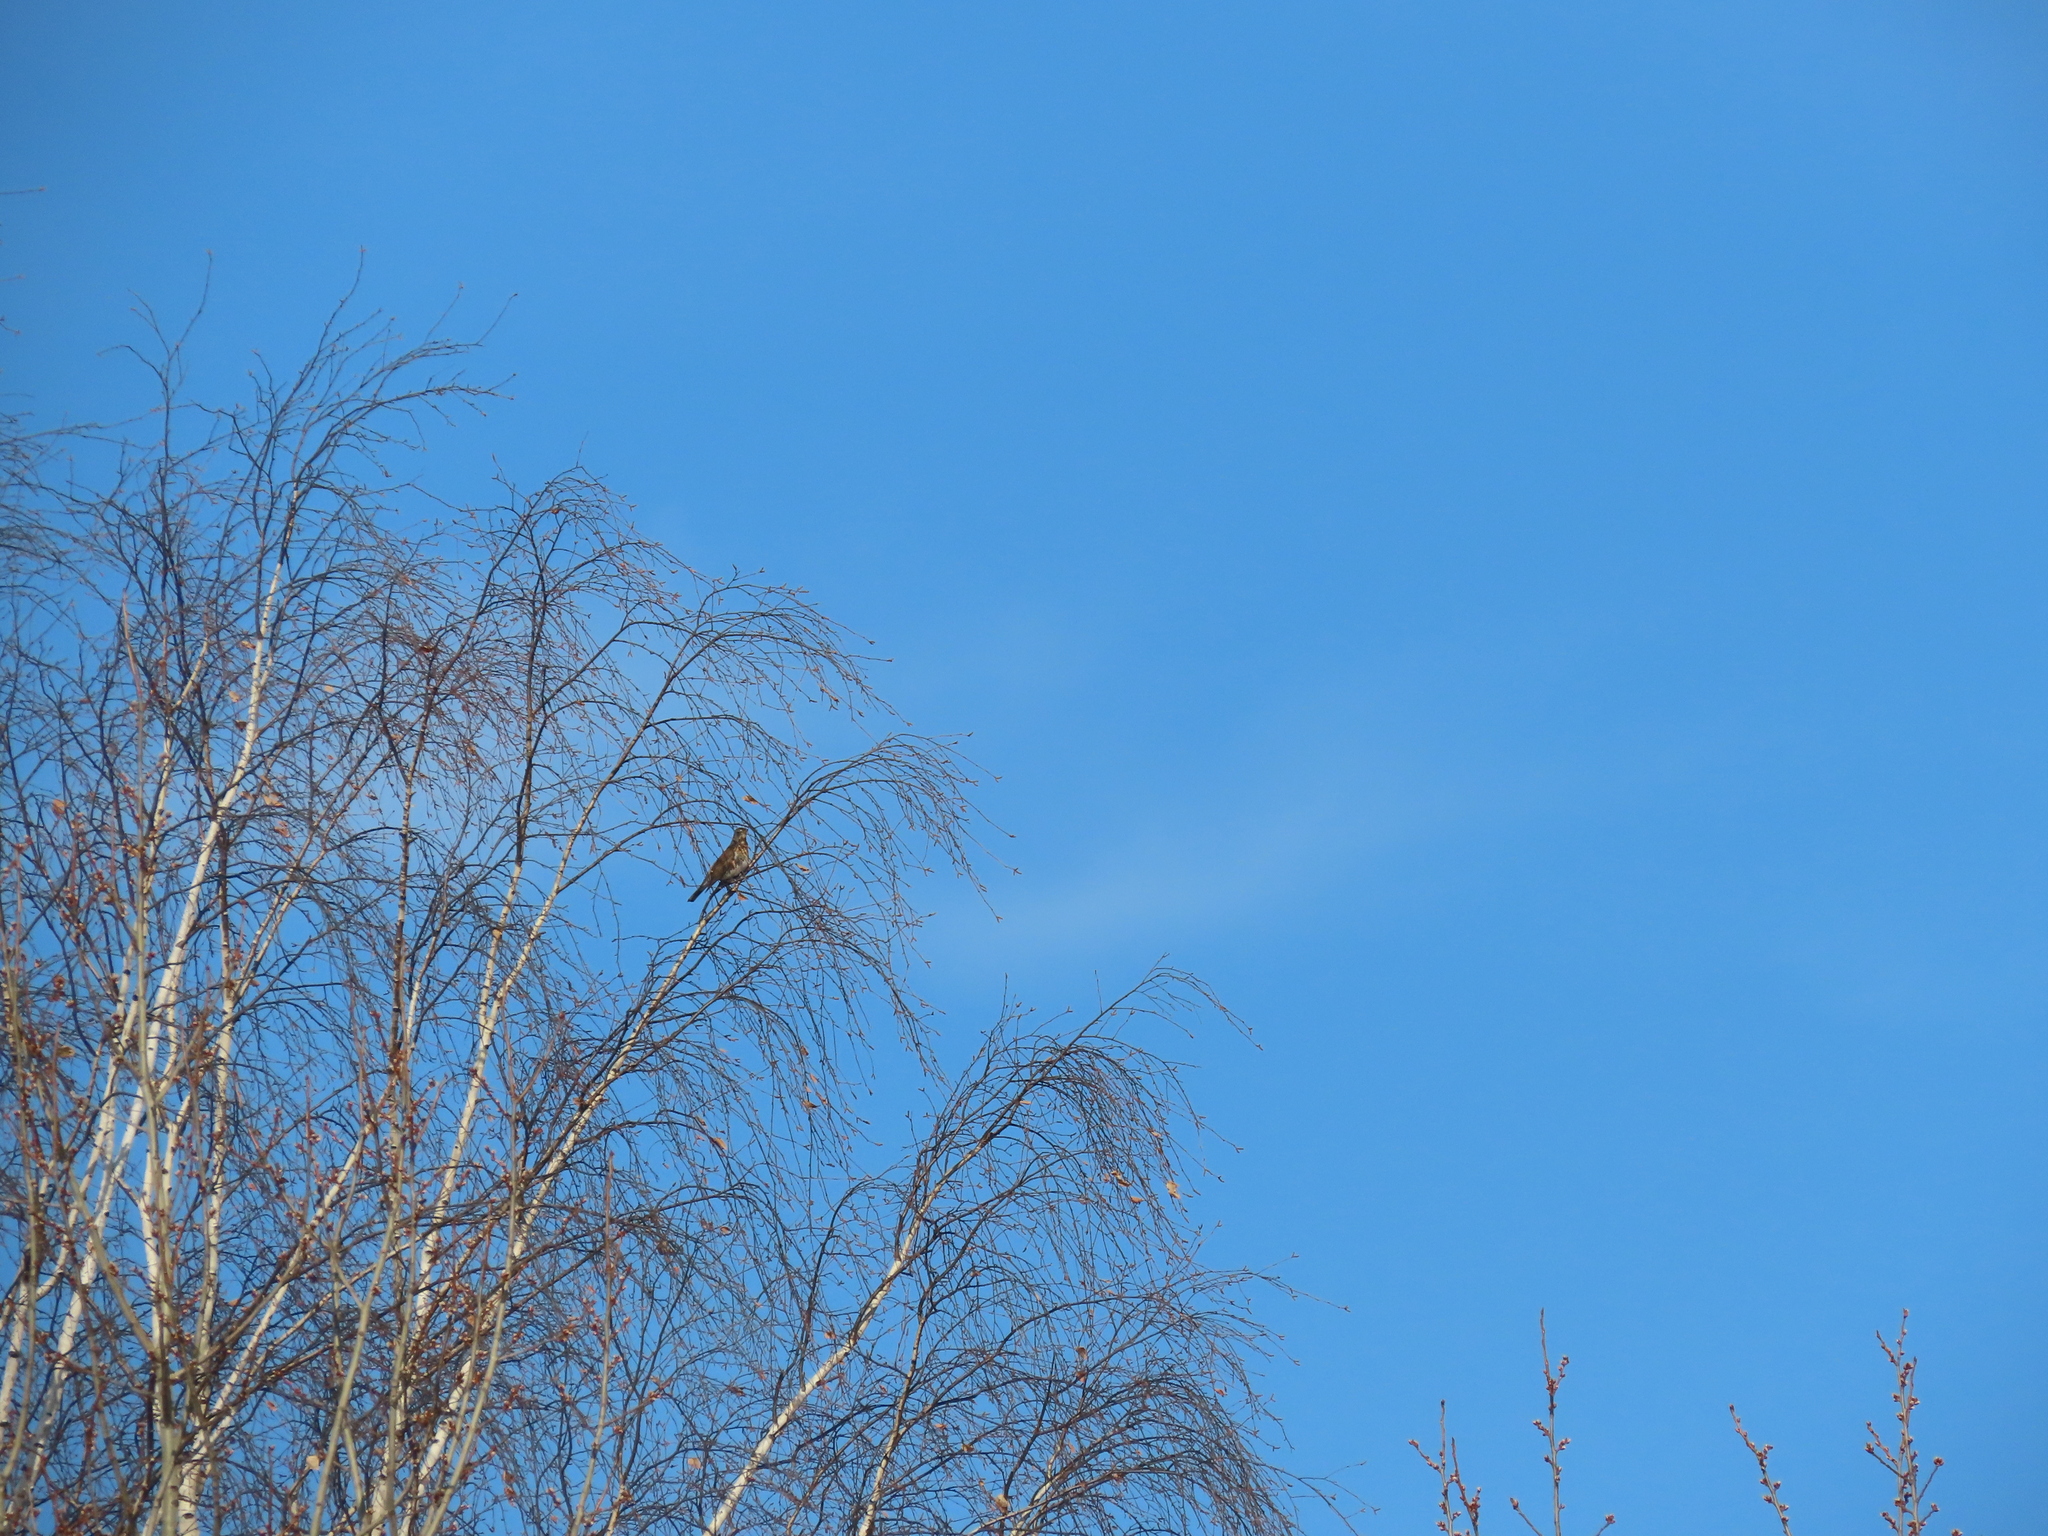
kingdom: Animalia
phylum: Chordata
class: Aves
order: Passeriformes
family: Turdidae
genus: Turdus
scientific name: Turdus pilaris
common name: Fieldfare
